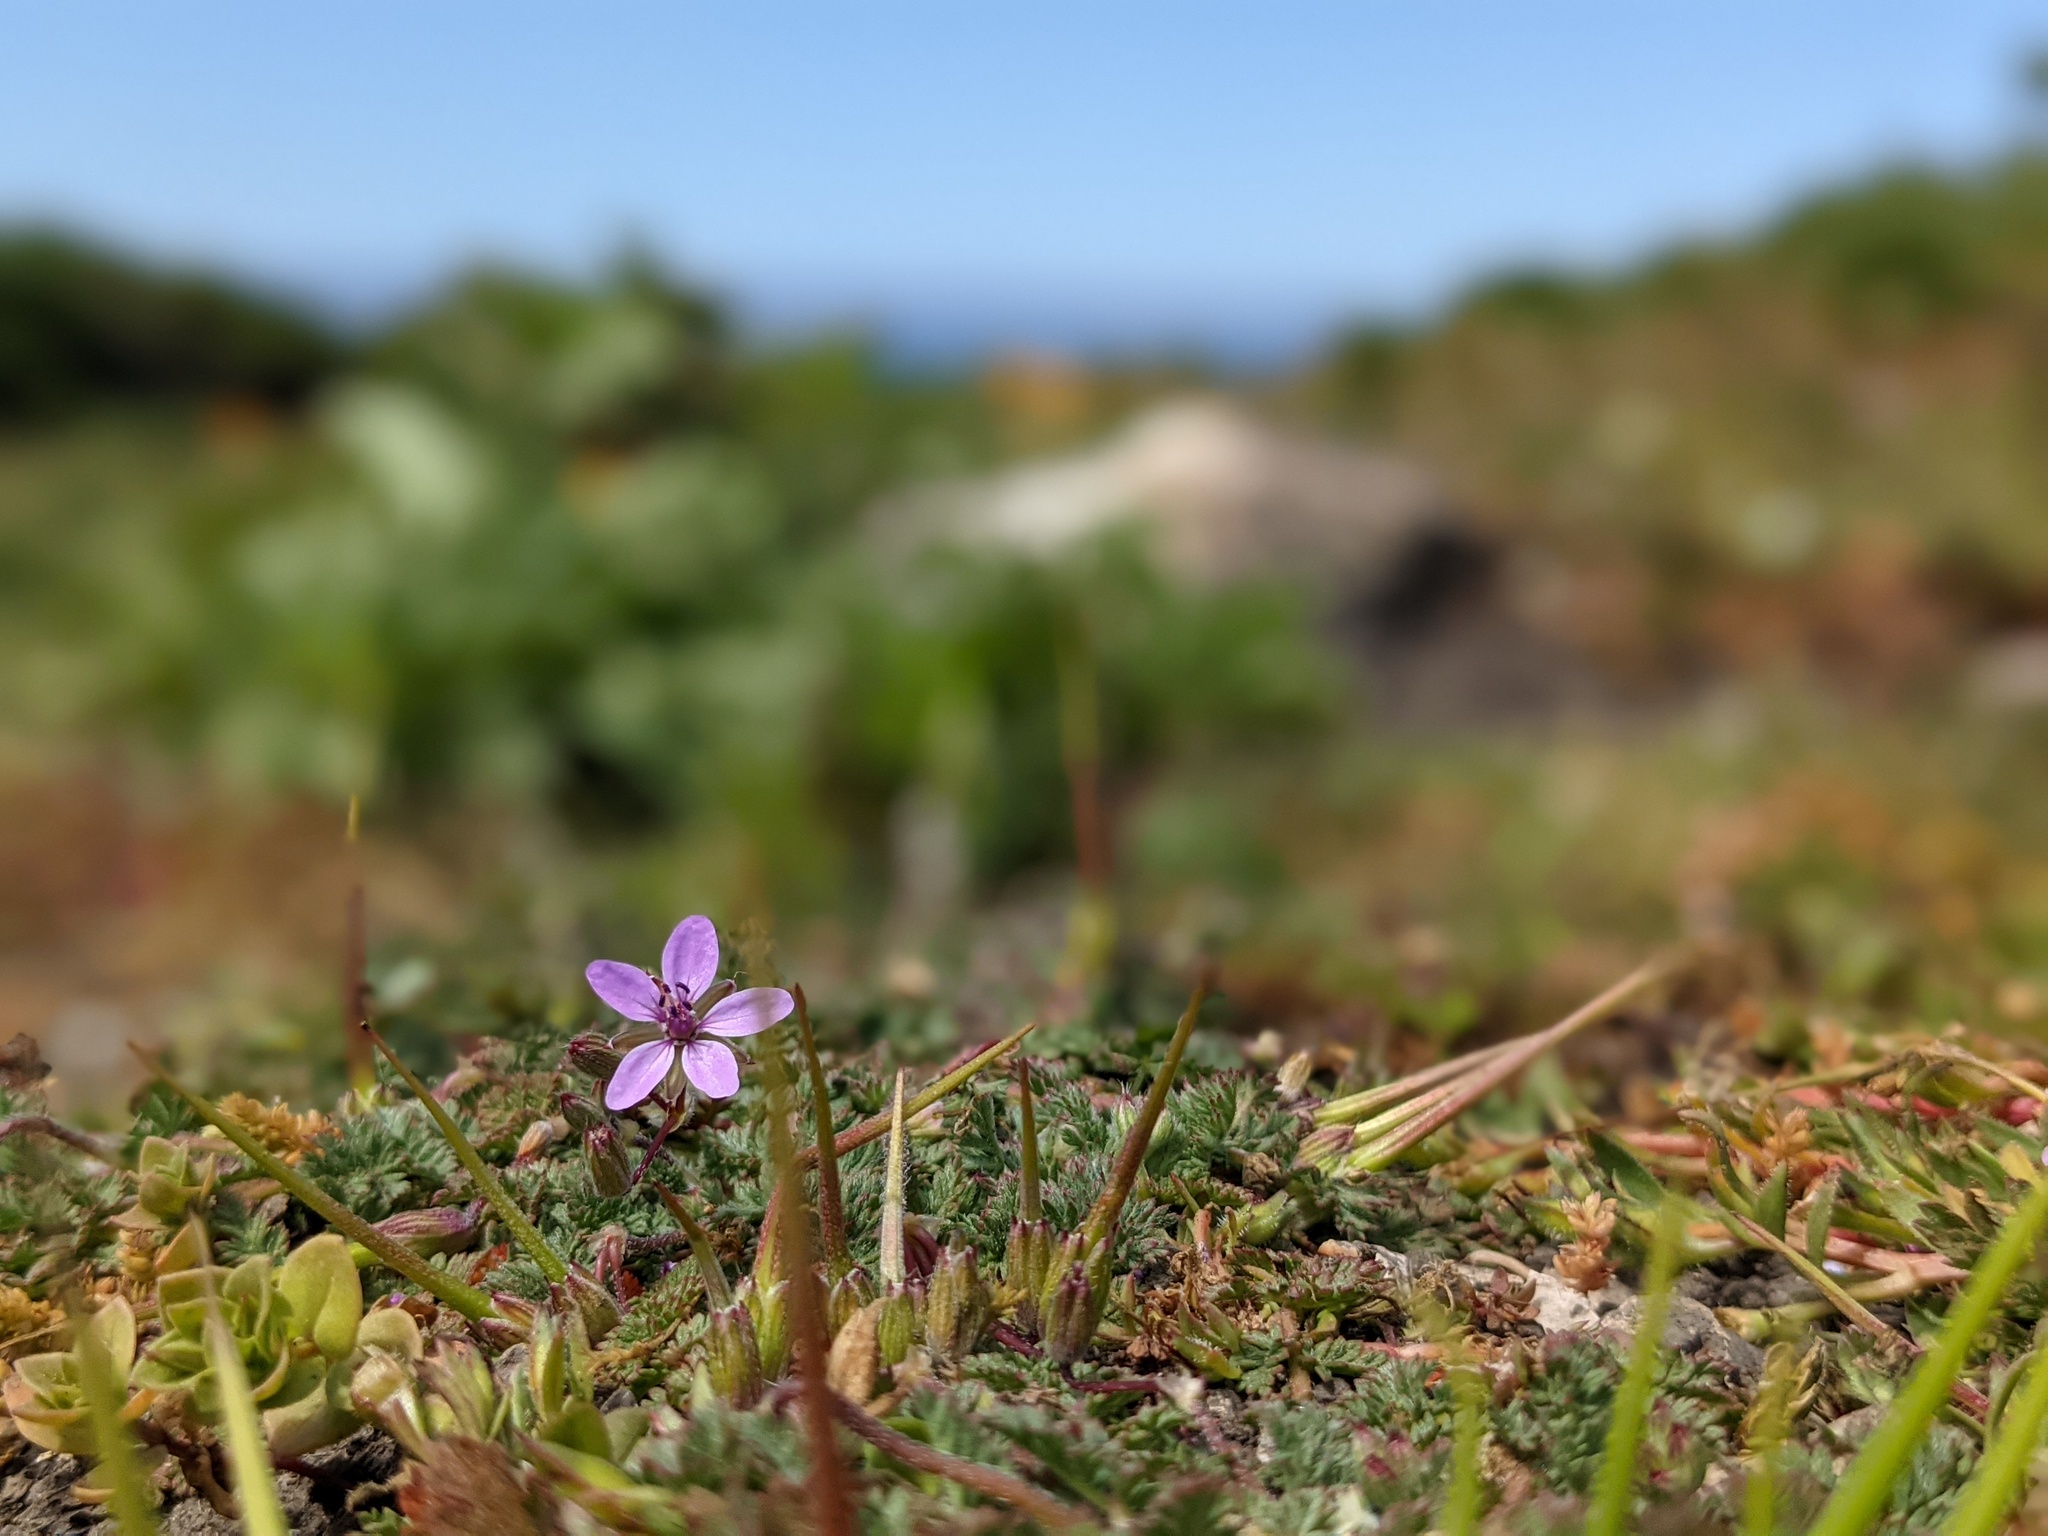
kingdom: Plantae
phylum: Tracheophyta
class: Magnoliopsida
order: Geraniales
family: Geraniaceae
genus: Erodium
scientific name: Erodium cicutarium
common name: Common stork's-bill
